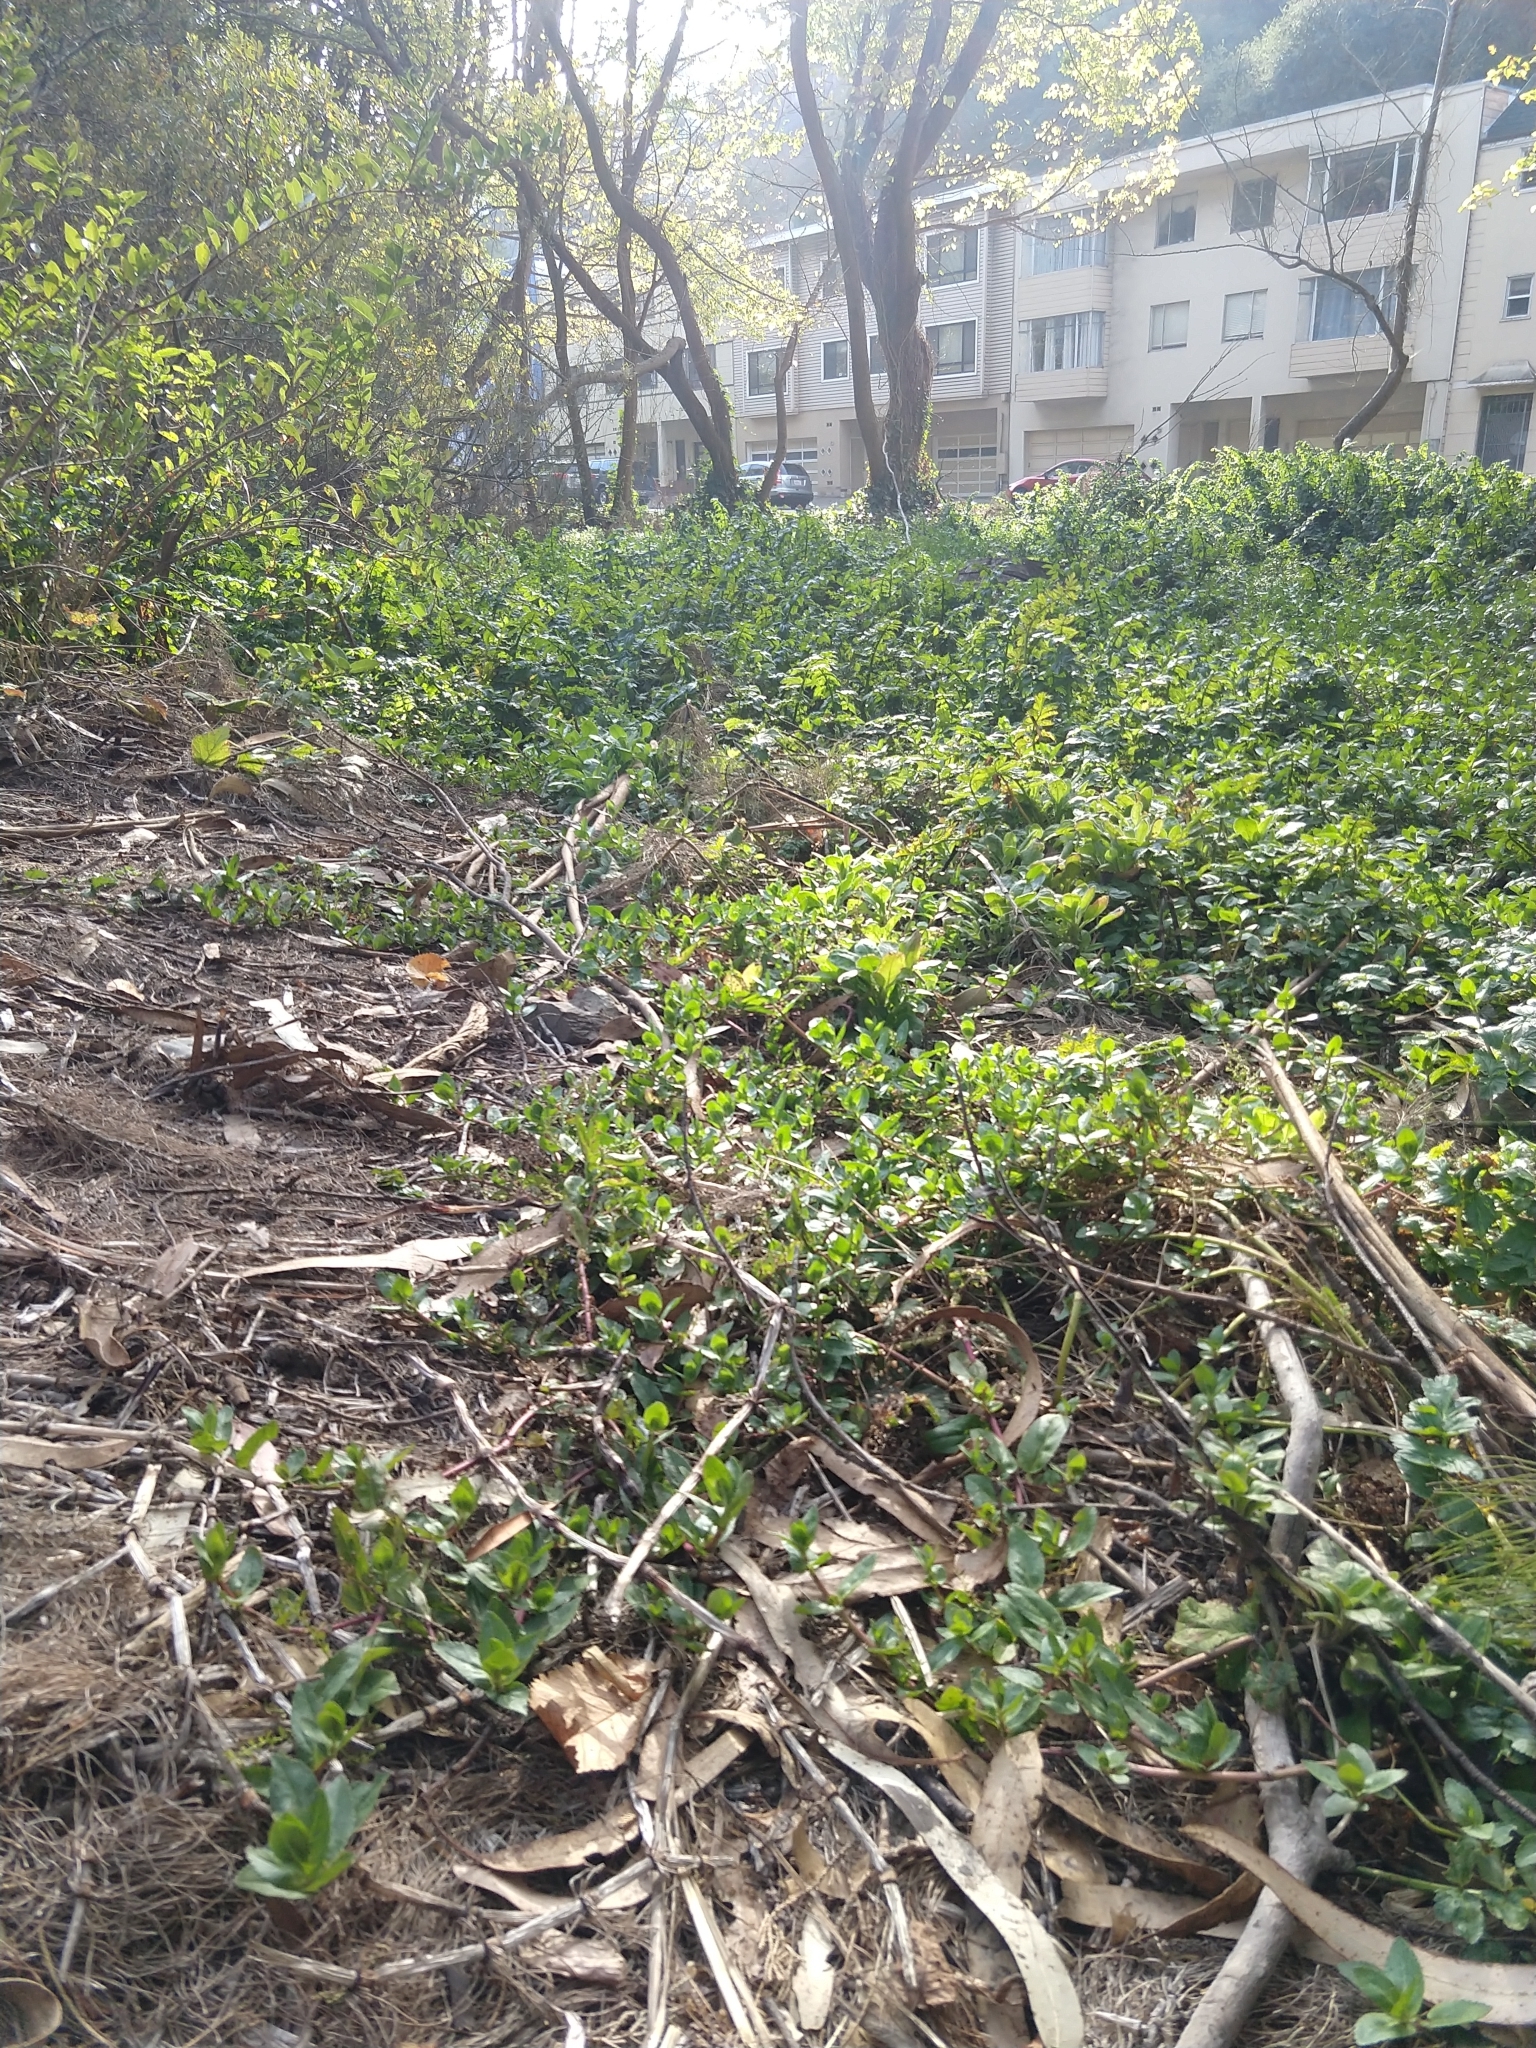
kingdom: Plantae
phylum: Tracheophyta
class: Magnoliopsida
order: Lamiales
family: Plantaginaceae
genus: Veronica
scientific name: Veronica americana
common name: American brooklime
